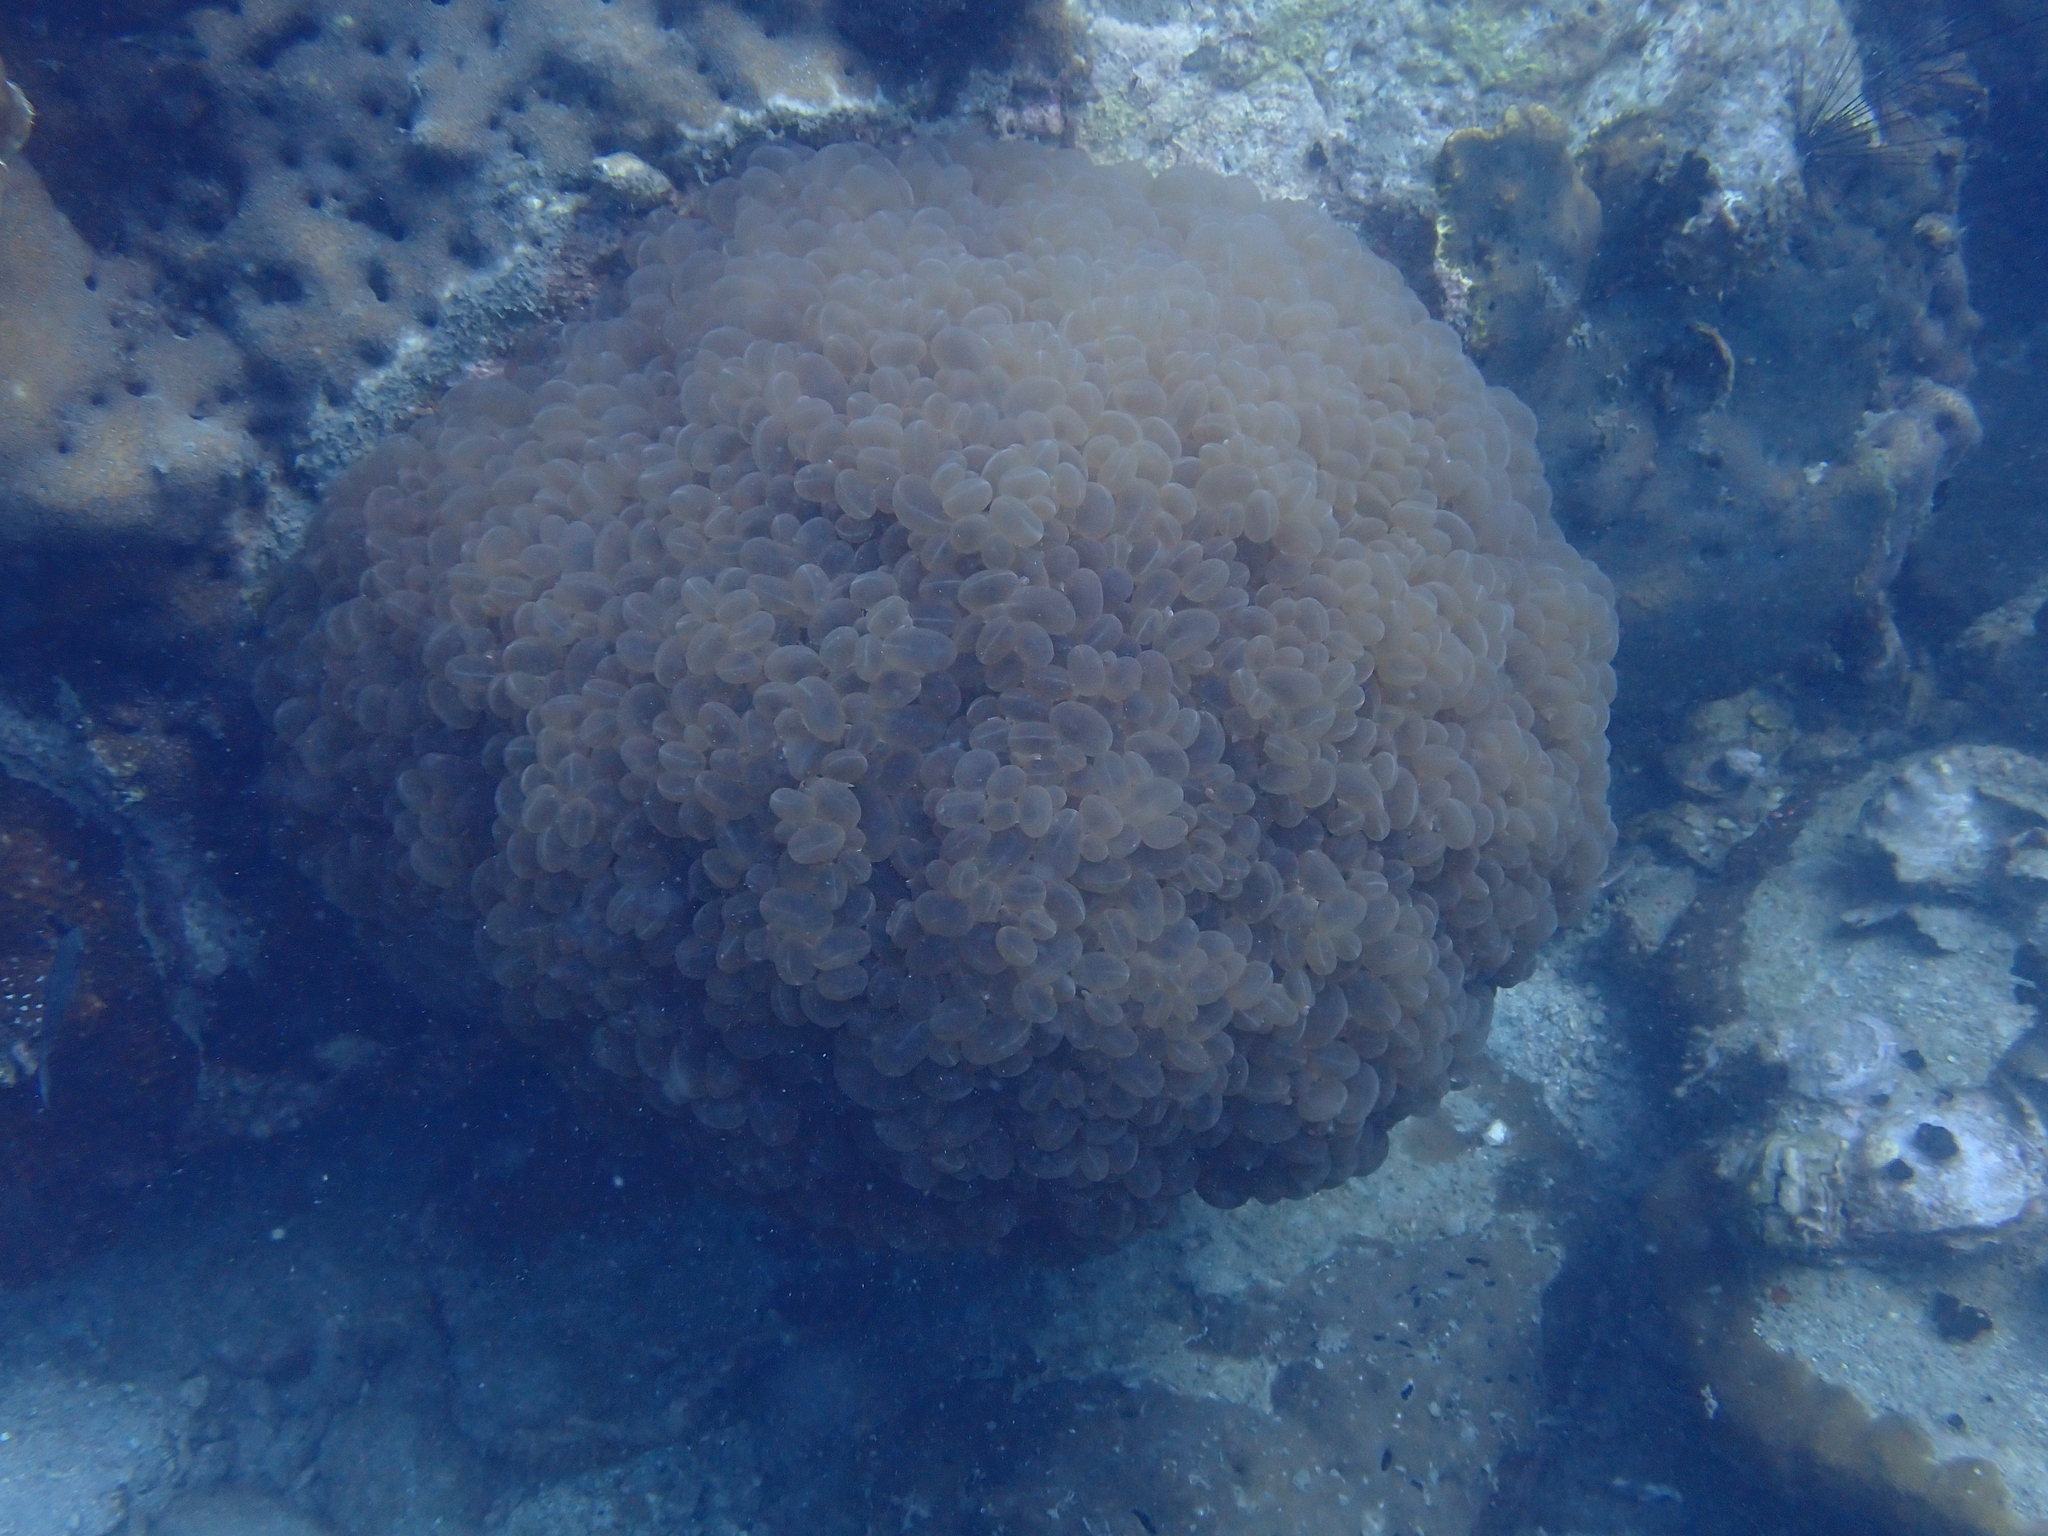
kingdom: Animalia
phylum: Cnidaria
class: Anthozoa
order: Scleractinia
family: Plerogyridae
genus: Plerogyra
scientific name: Plerogyra sinuosa
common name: Bubble coral
